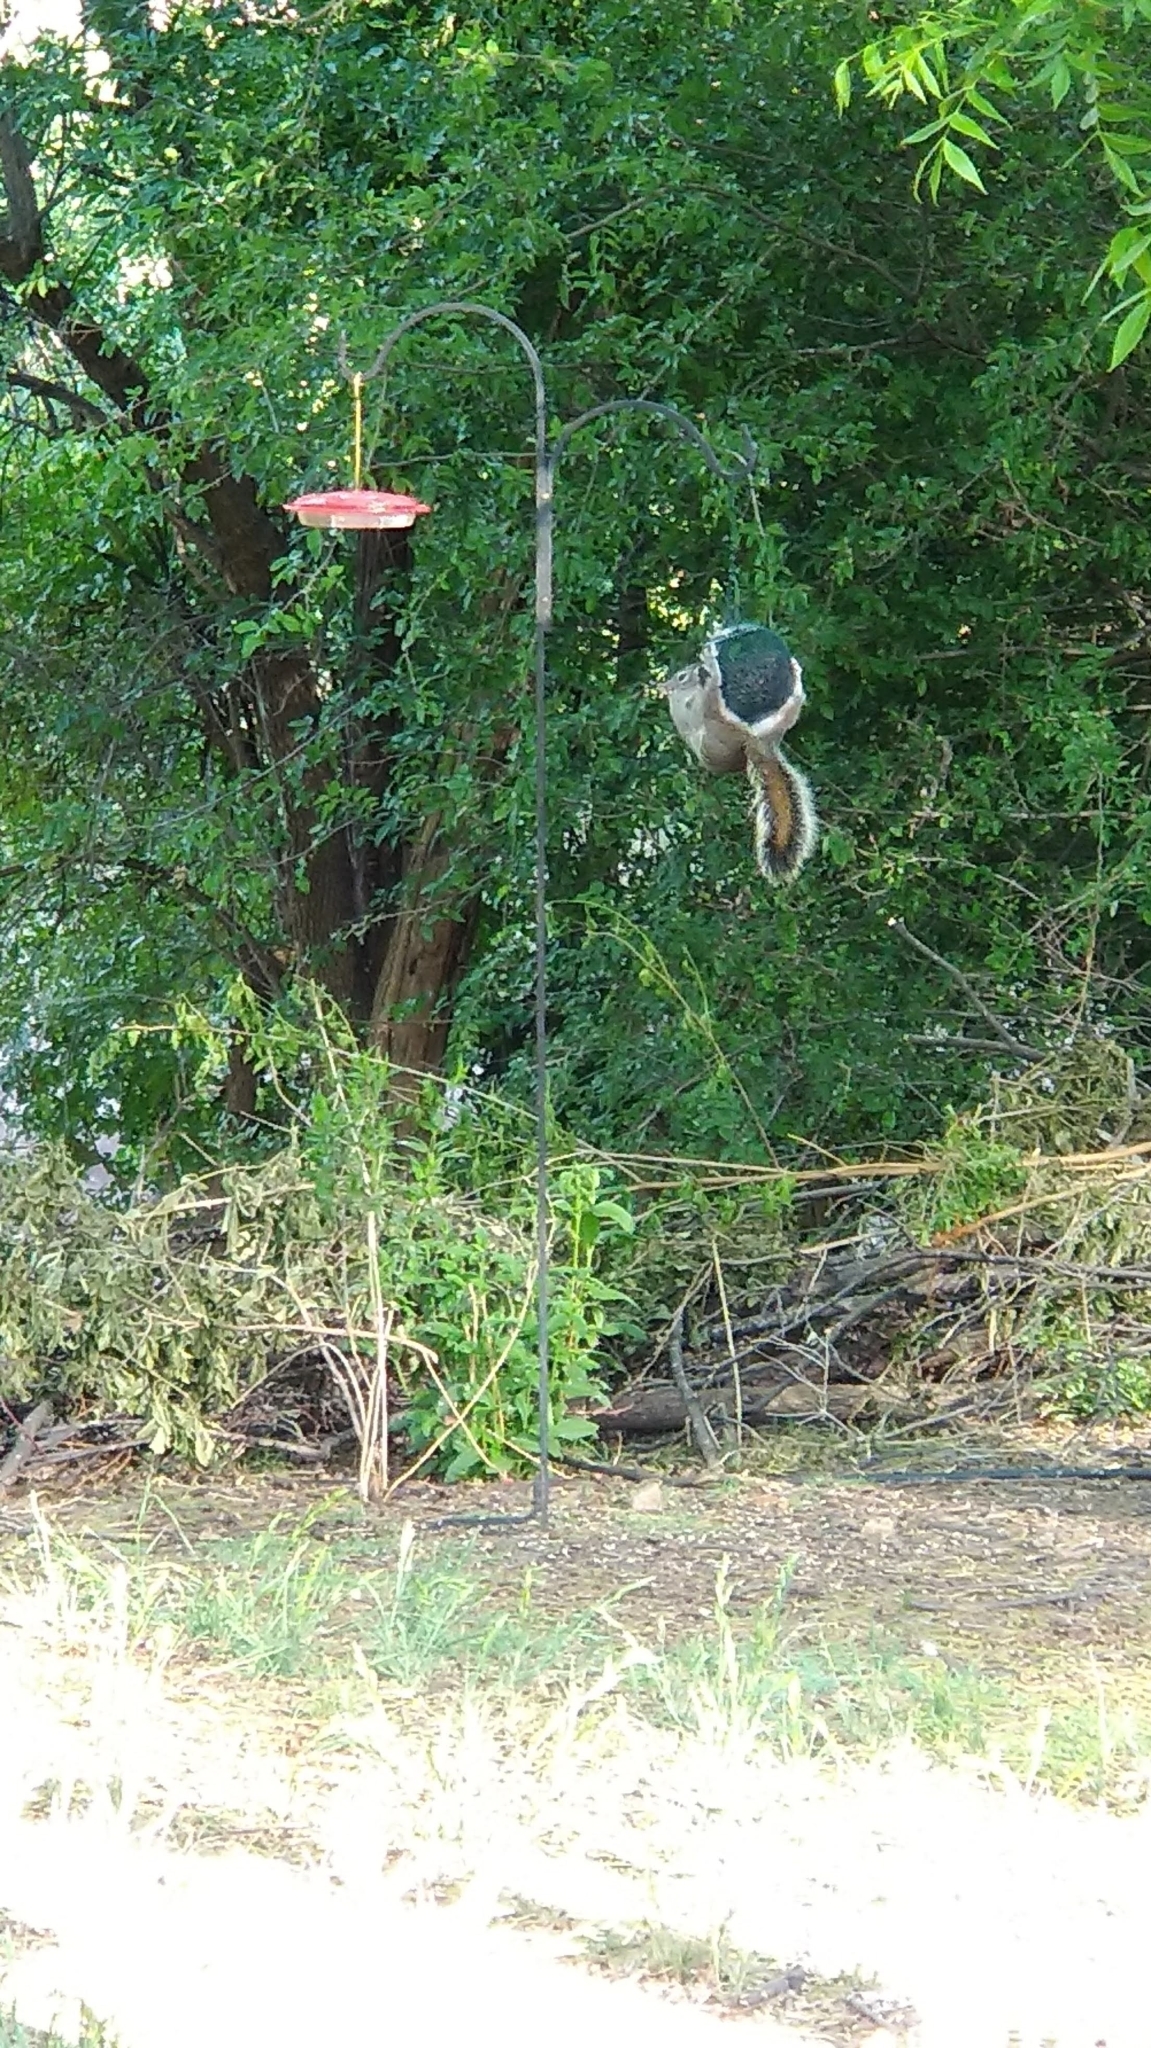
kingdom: Animalia
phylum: Chordata
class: Mammalia
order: Rodentia
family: Sciuridae
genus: Sciurus
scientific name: Sciurus arizonensis
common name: Arizona gray squirrel
